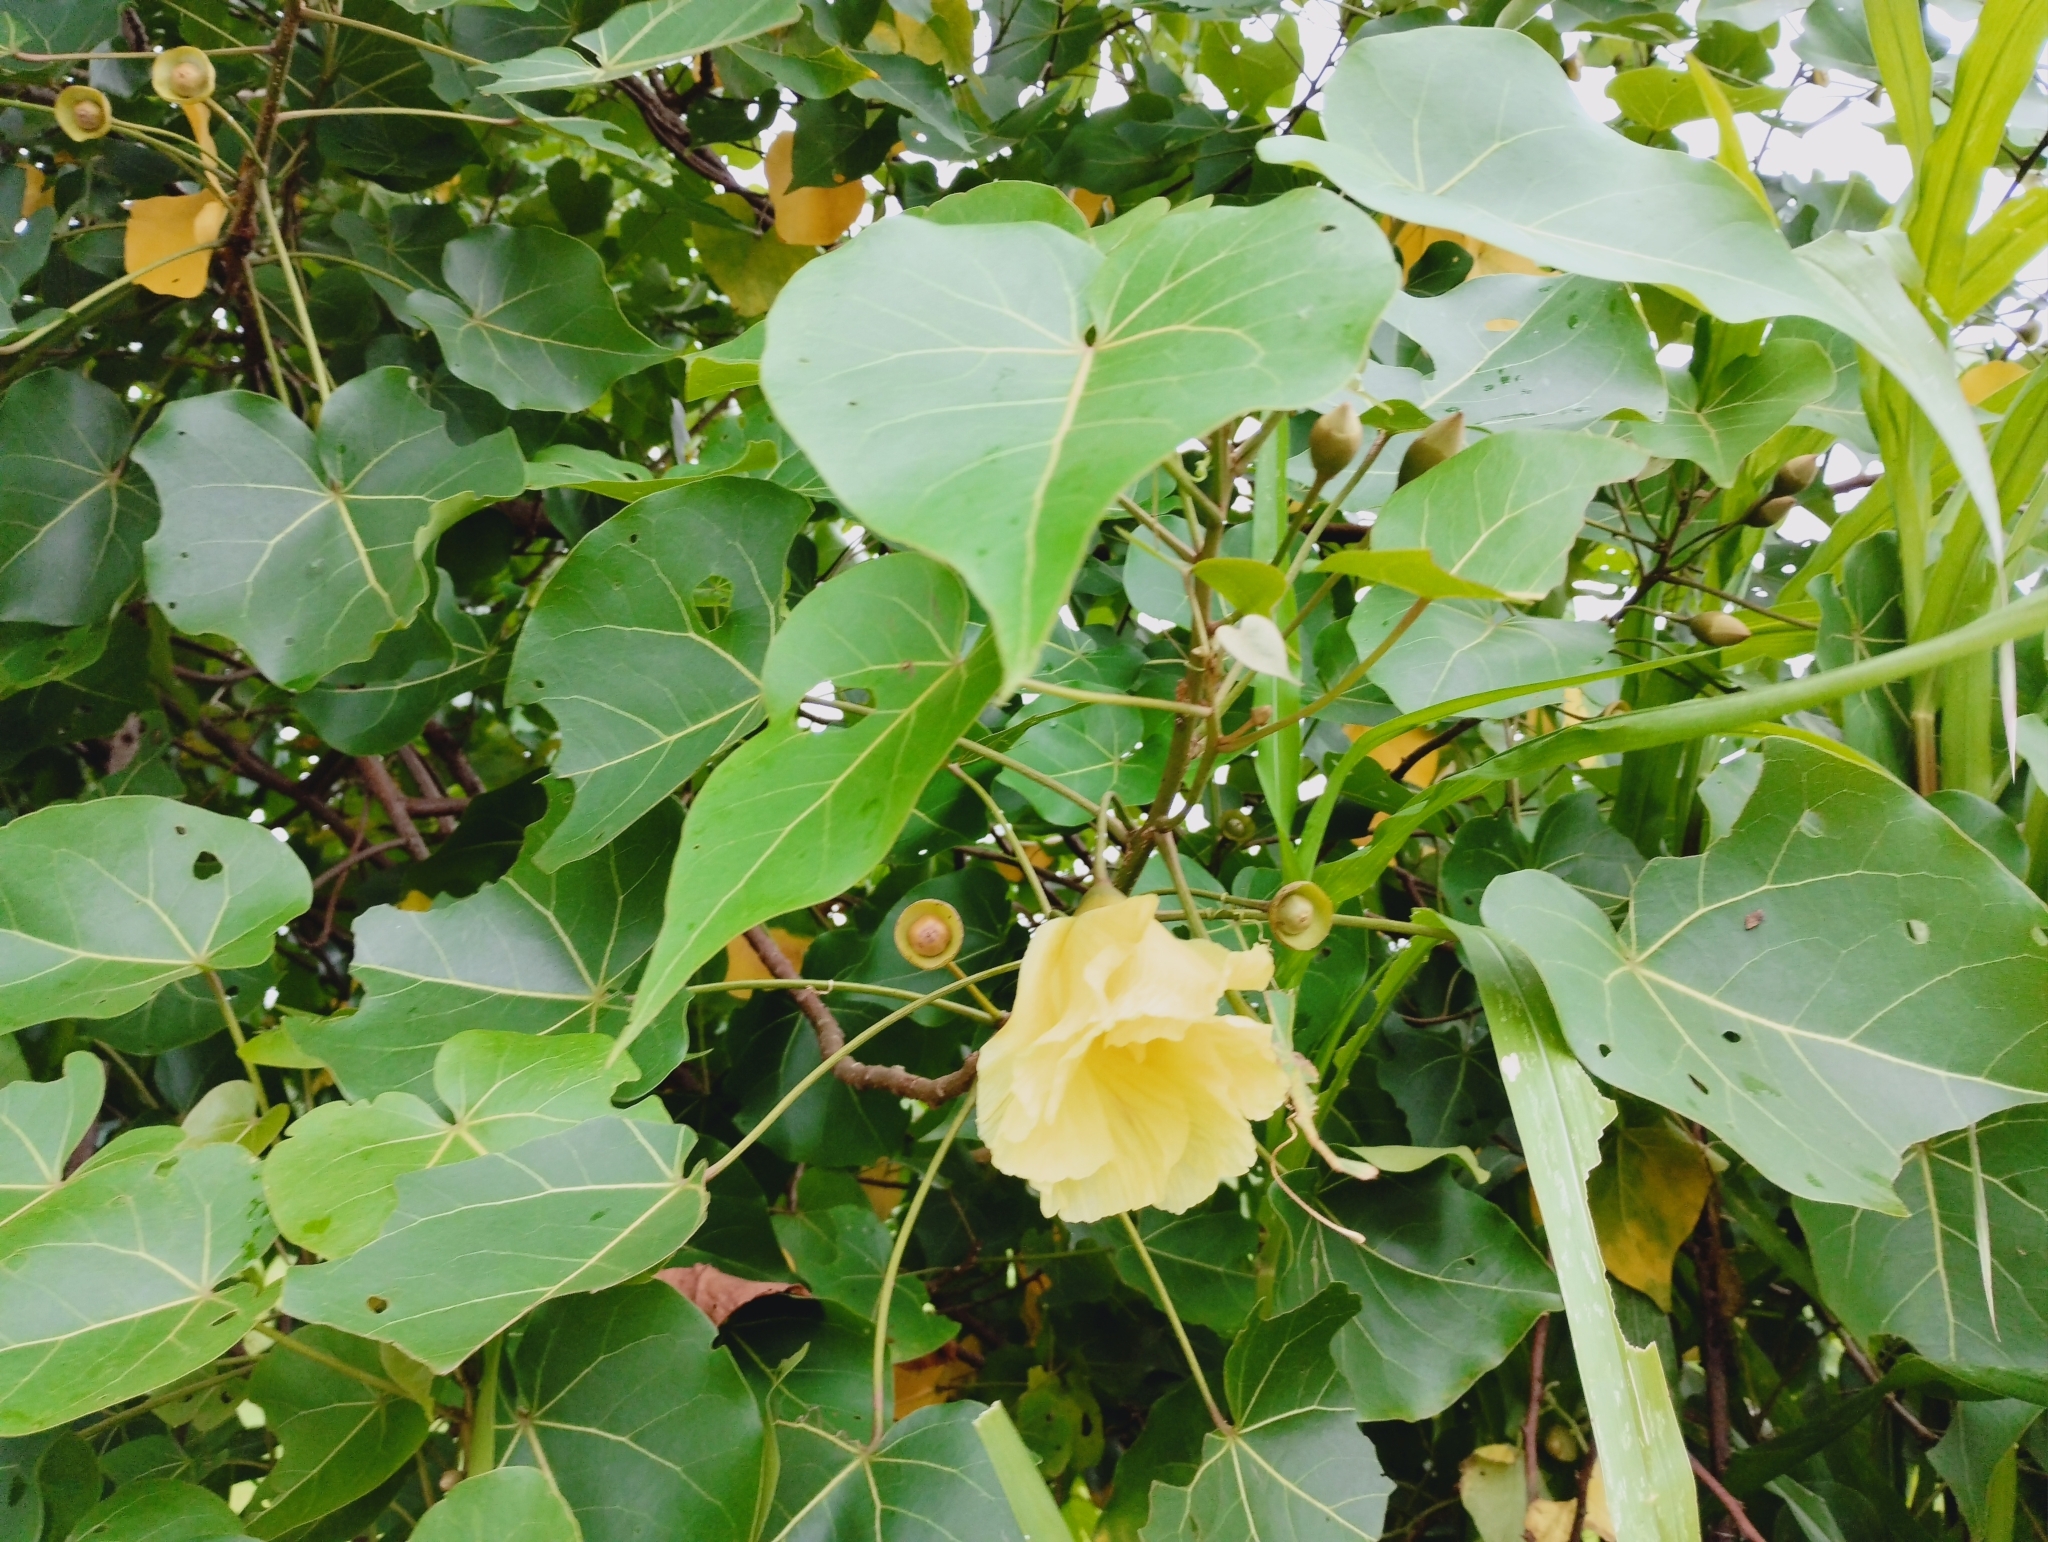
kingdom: Plantae
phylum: Tracheophyta
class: Magnoliopsida
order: Malvales
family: Malvaceae
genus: Thespesia
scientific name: Thespesia populnea
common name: Seaside mahoe
